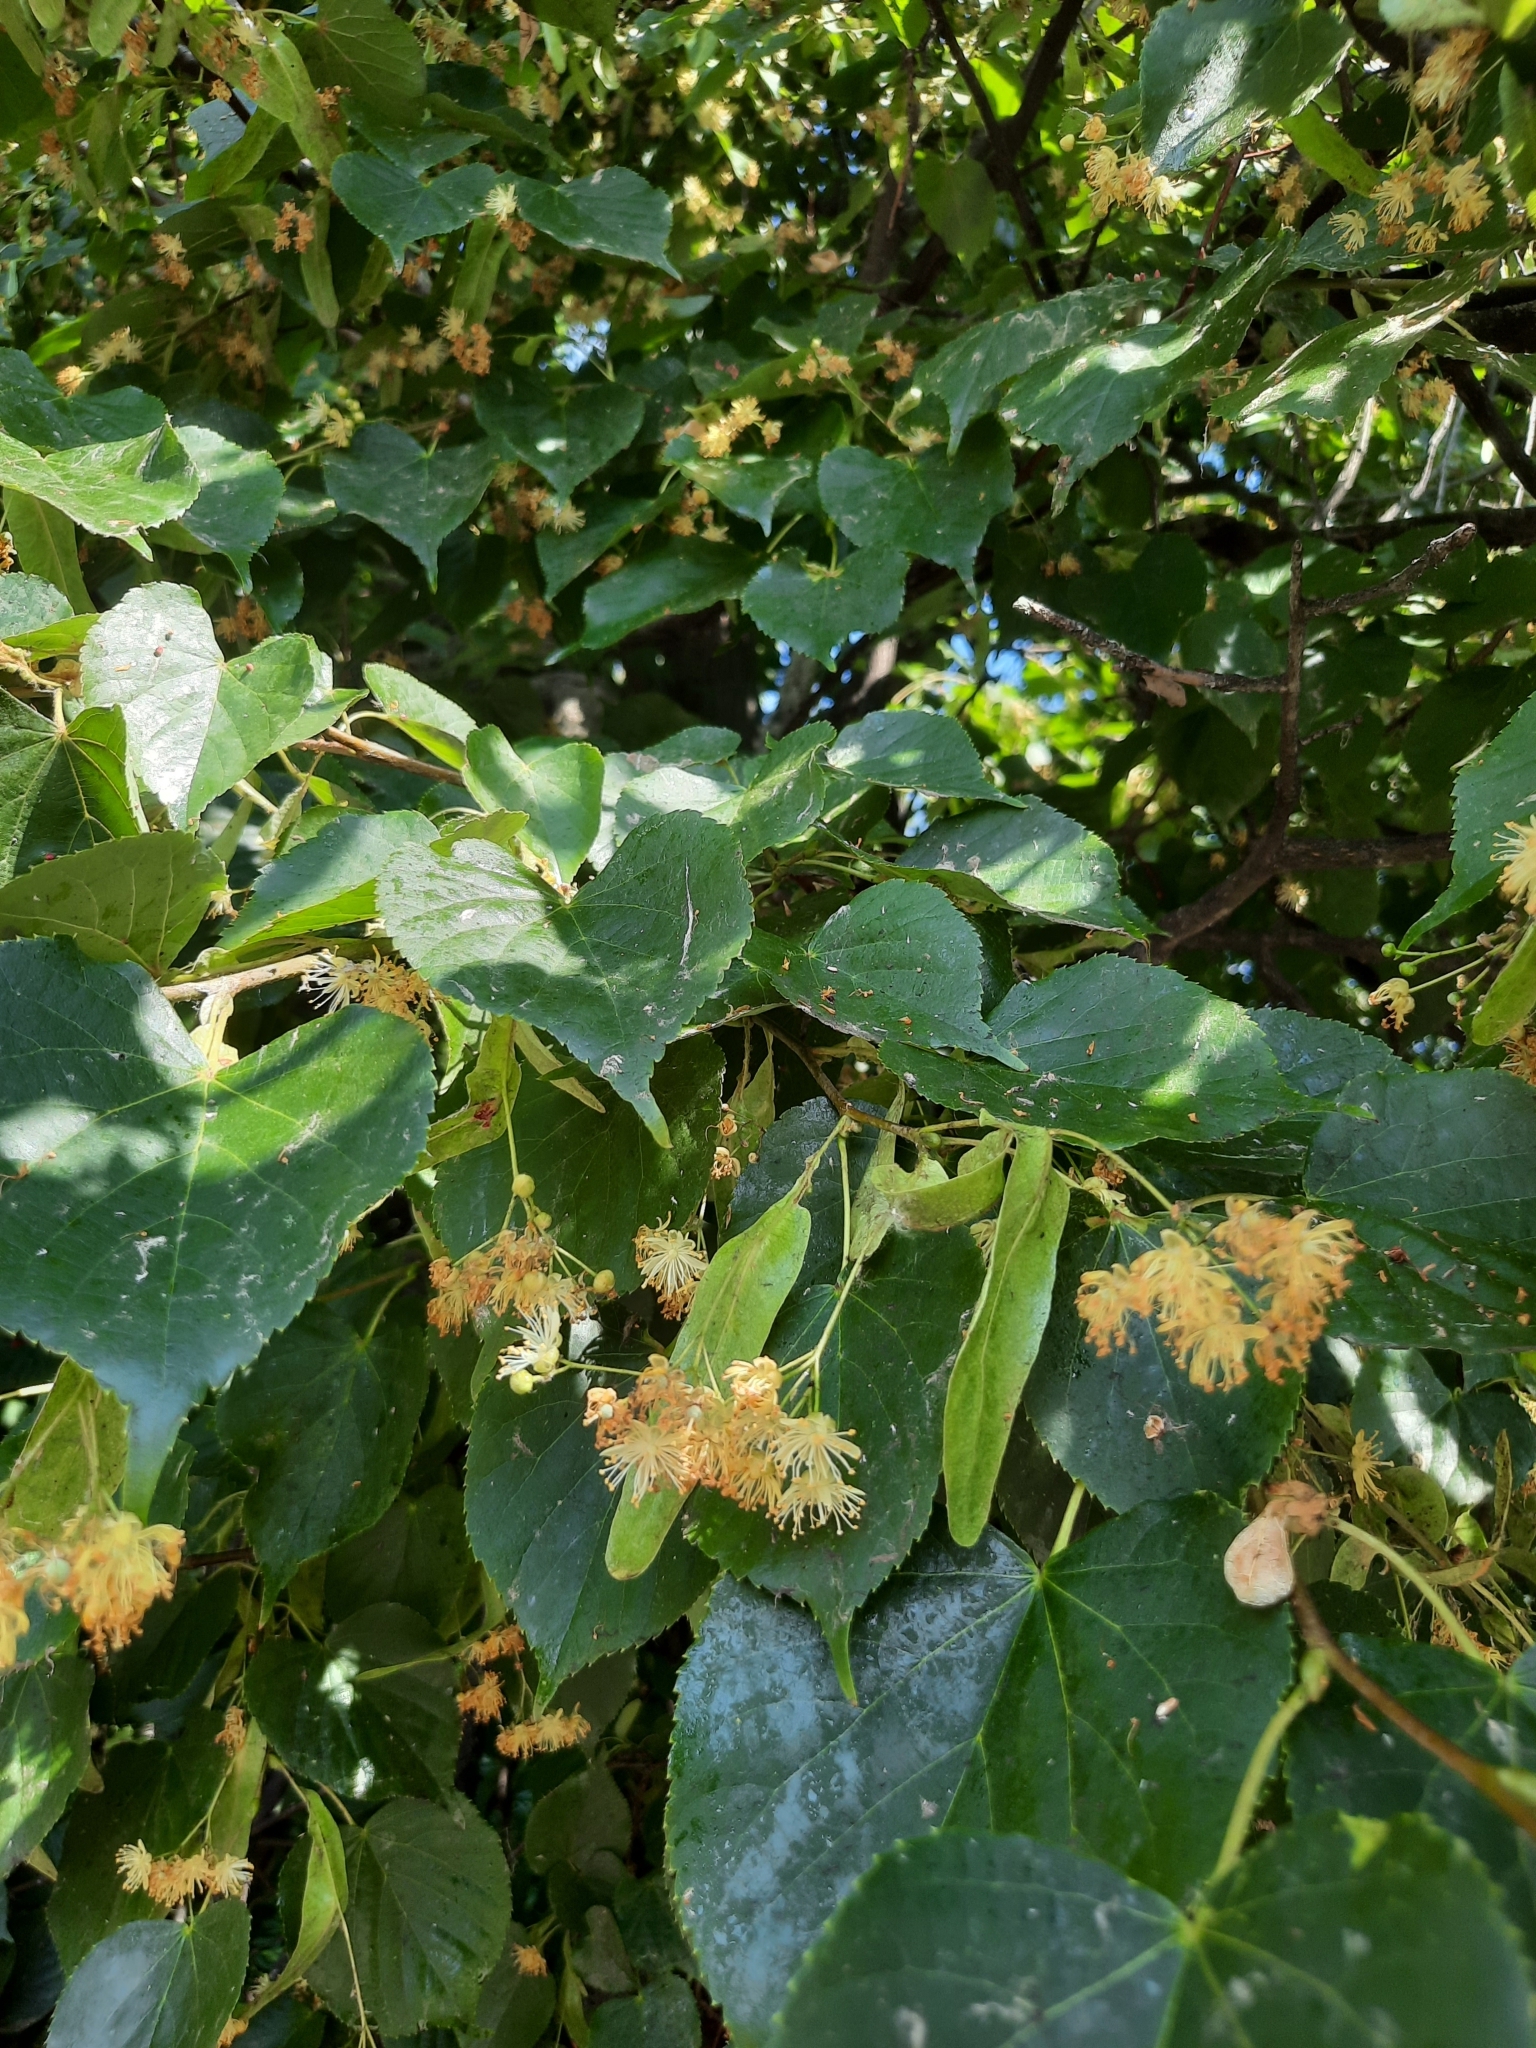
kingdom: Plantae
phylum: Tracheophyta
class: Magnoliopsida
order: Malvales
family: Malvaceae
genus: Tilia
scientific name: Tilia cordata
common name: Small-leaved lime
